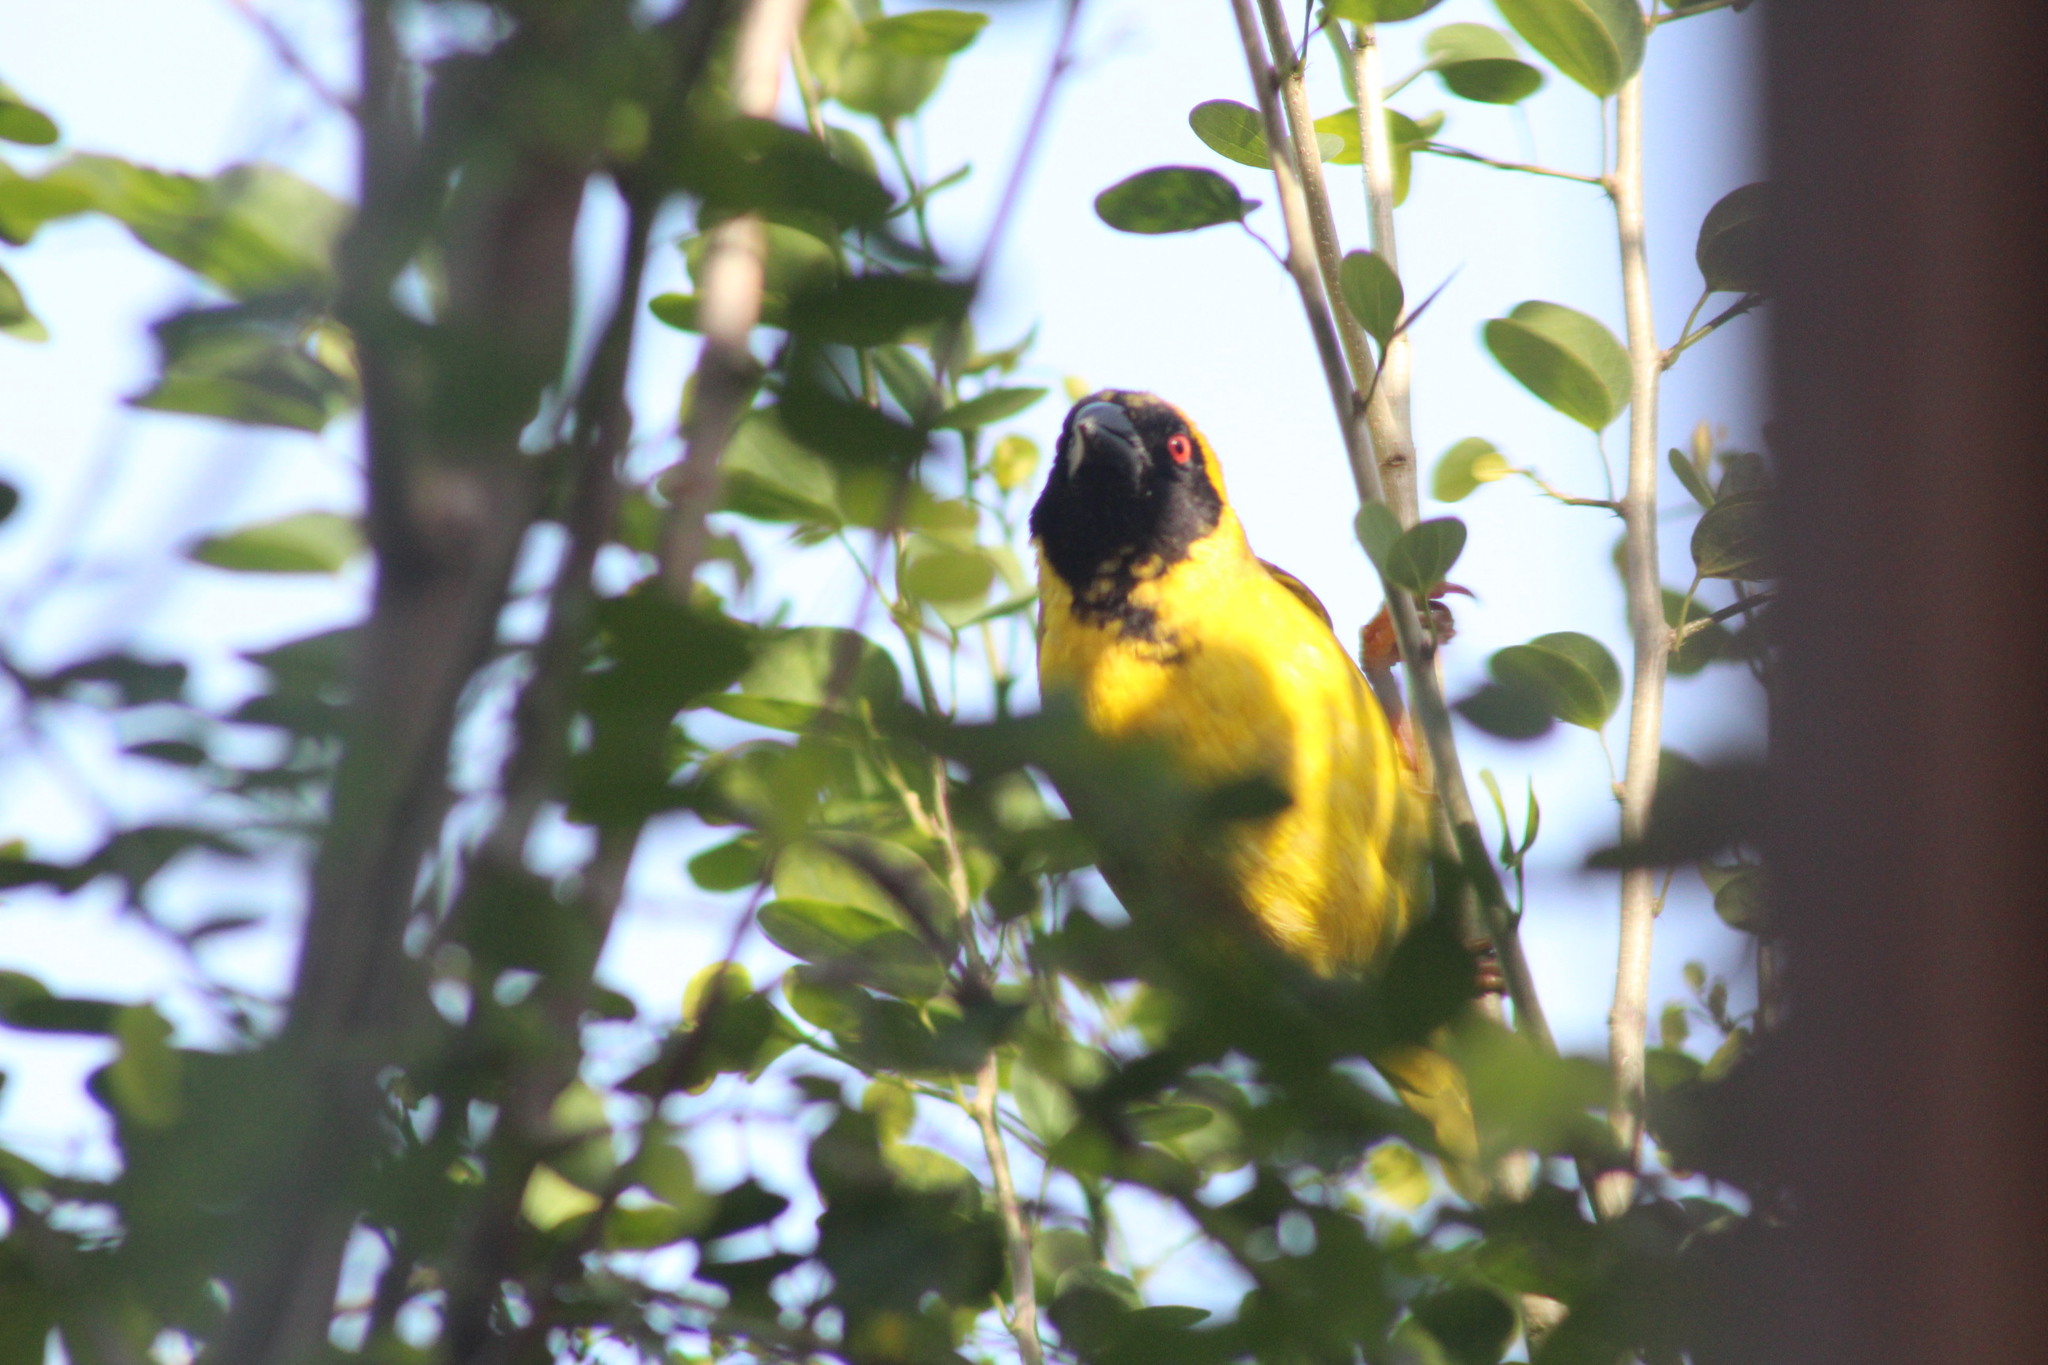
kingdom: Animalia
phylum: Chordata
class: Aves
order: Passeriformes
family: Ploceidae
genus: Ploceus
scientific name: Ploceus velatus
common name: Southern masked weaver
